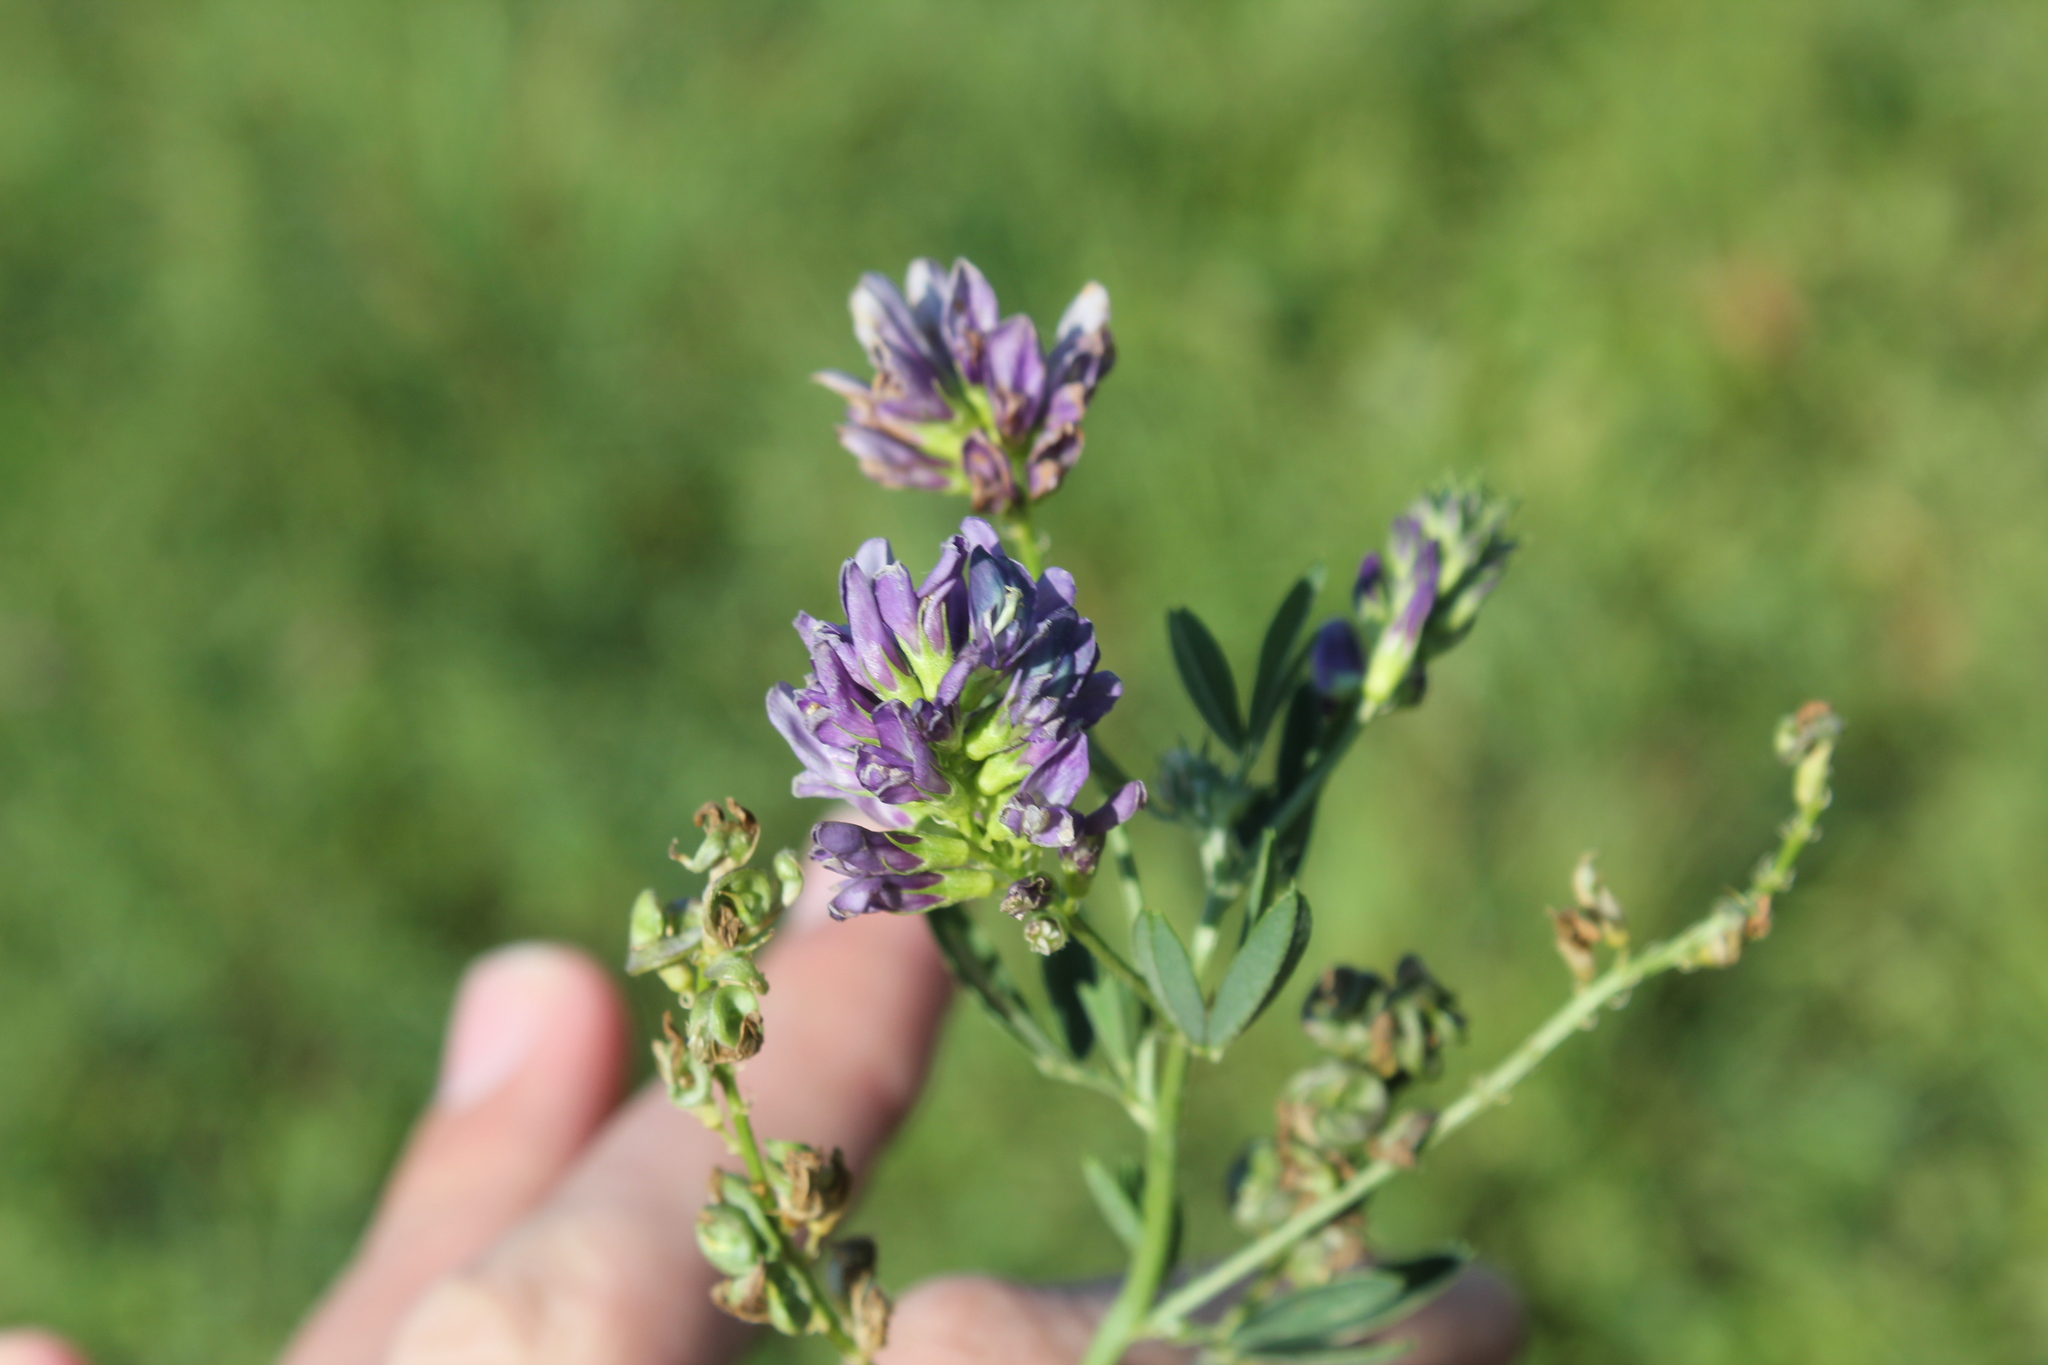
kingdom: Plantae
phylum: Tracheophyta
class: Magnoliopsida
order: Fabales
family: Fabaceae
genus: Medicago
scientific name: Medicago sativa
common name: Alfalfa
